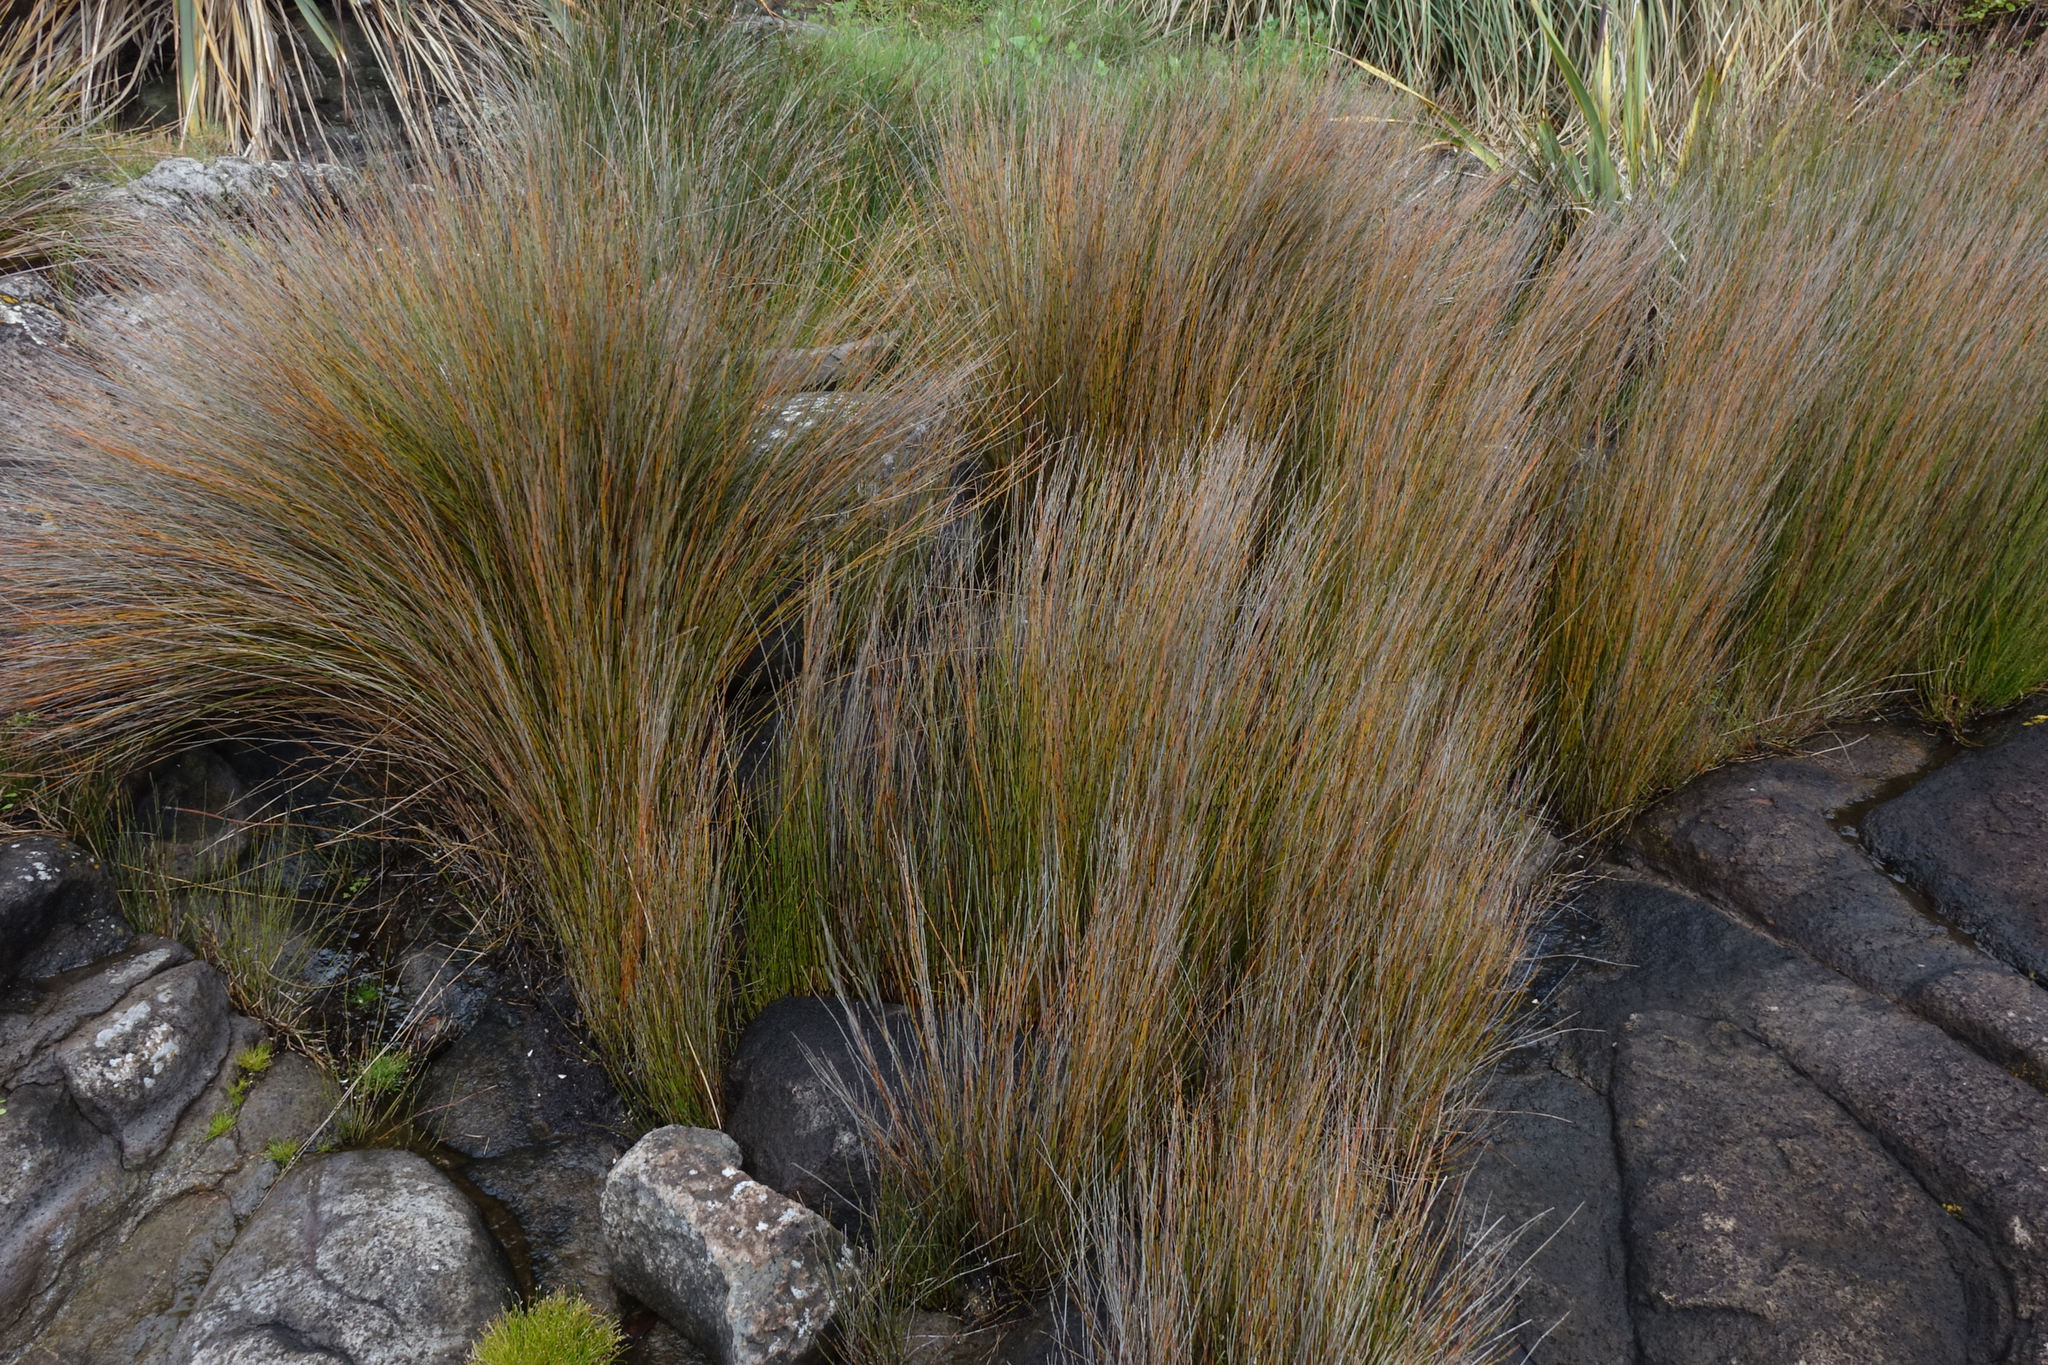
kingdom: Plantae
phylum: Tracheophyta
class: Liliopsida
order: Poales
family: Restionaceae
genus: Apodasmia
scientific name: Apodasmia similis
